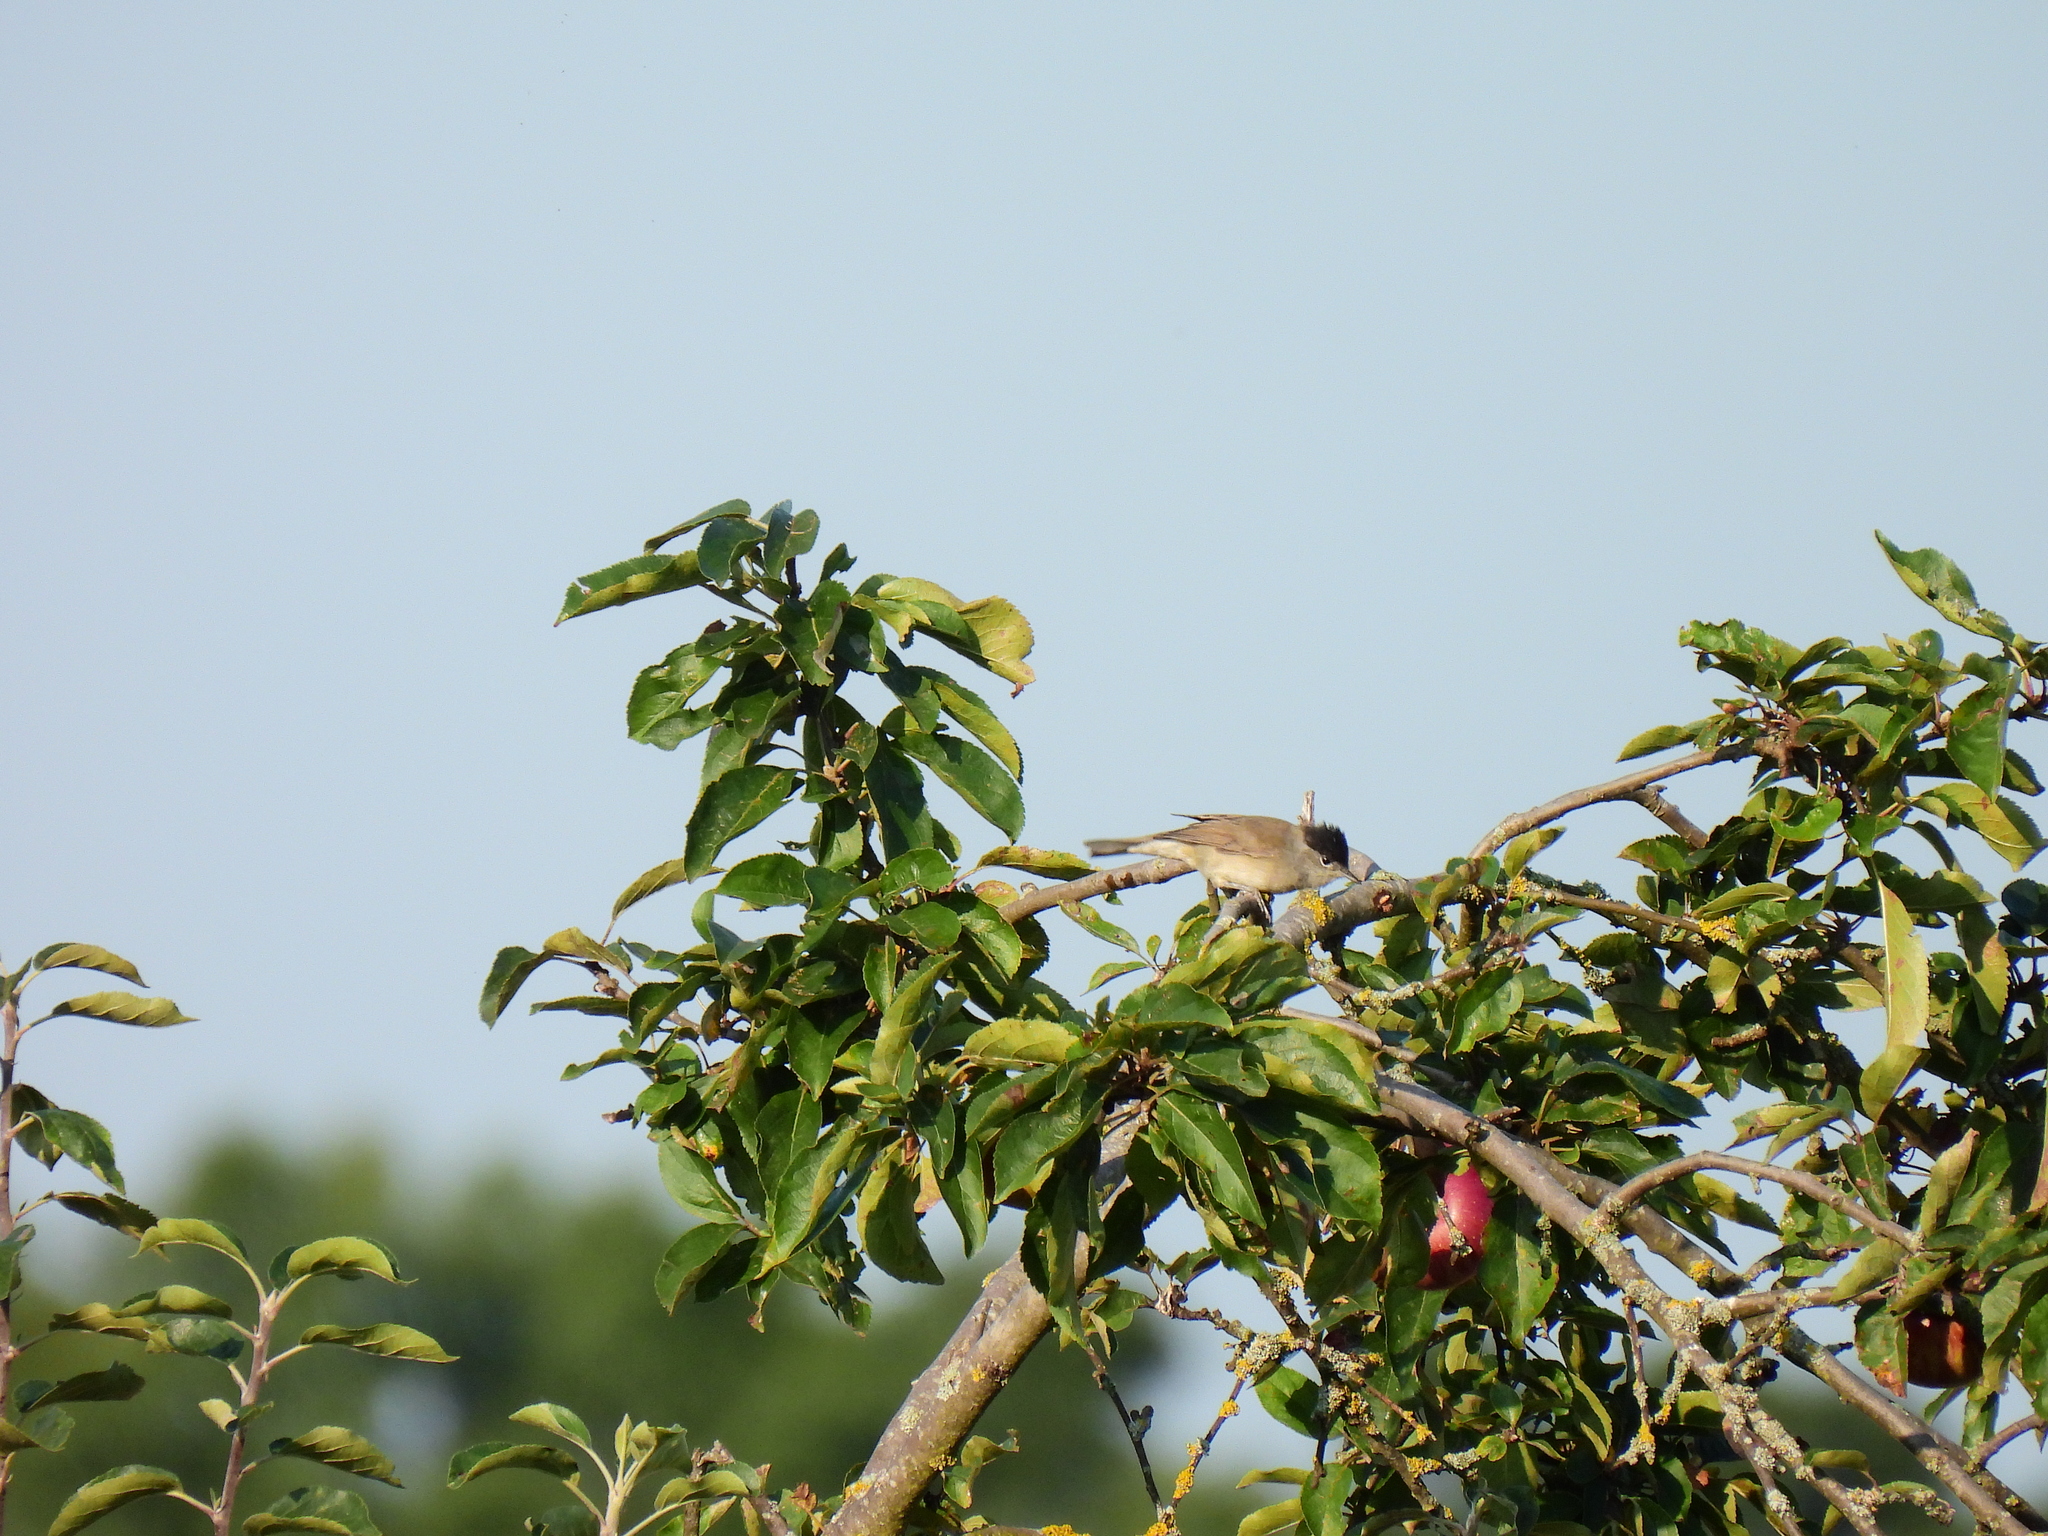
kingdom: Animalia
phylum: Chordata
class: Aves
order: Passeriformes
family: Sylviidae
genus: Sylvia
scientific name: Sylvia atricapilla
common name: Eurasian blackcap
